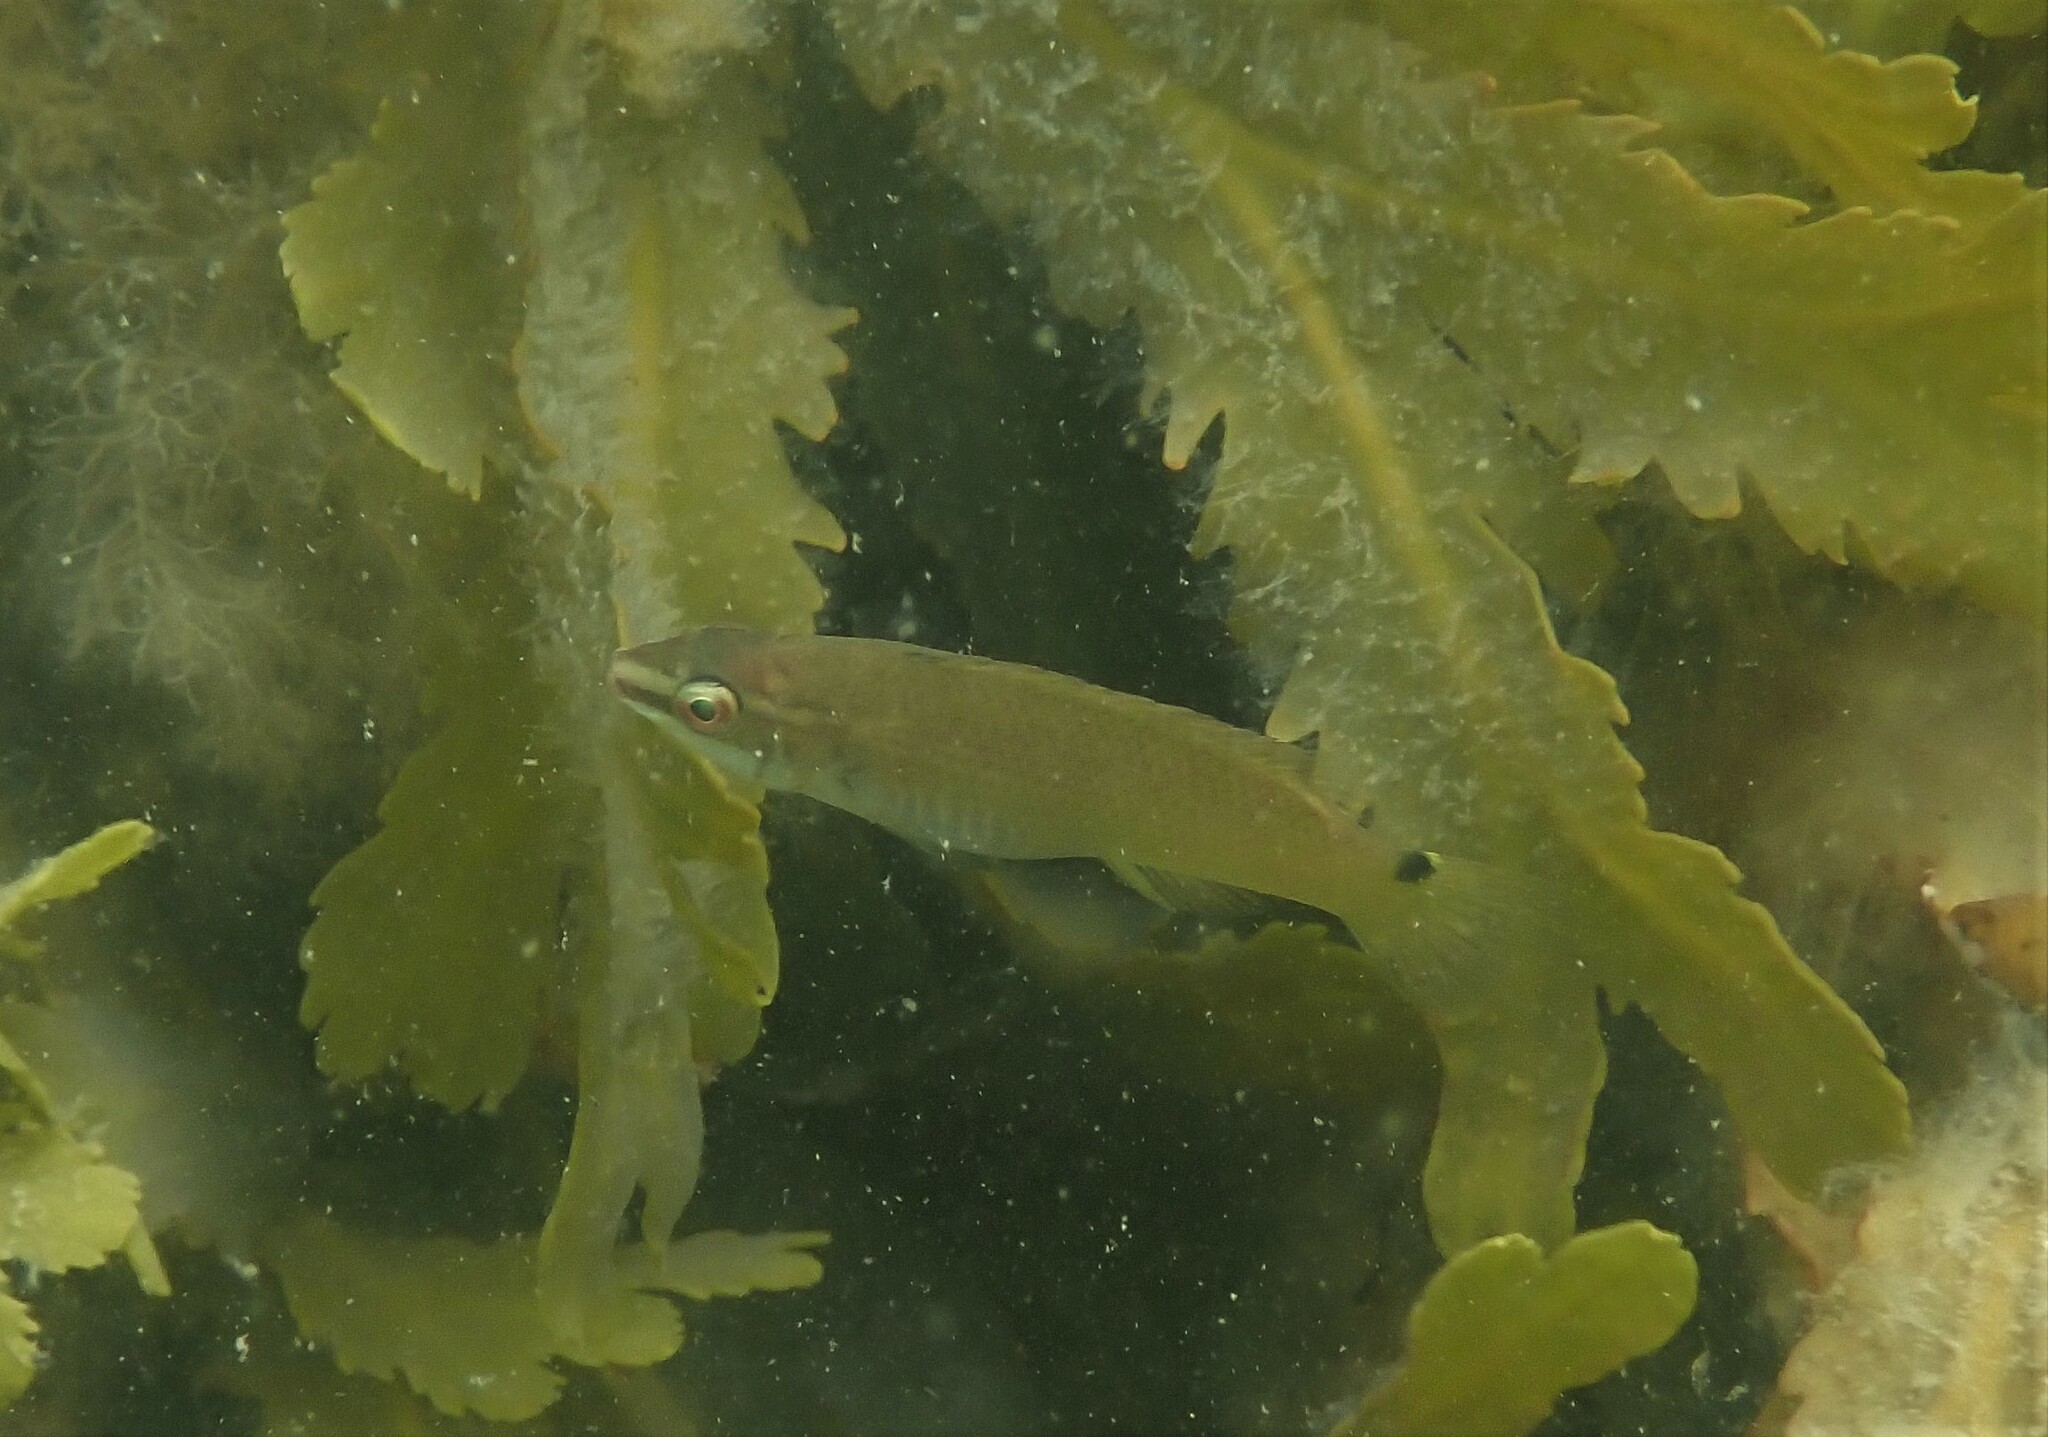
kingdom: Animalia
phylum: Chordata
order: Perciformes
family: Labridae
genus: Ctenolabrus
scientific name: Ctenolabrus rupestris
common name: Goldsinny
